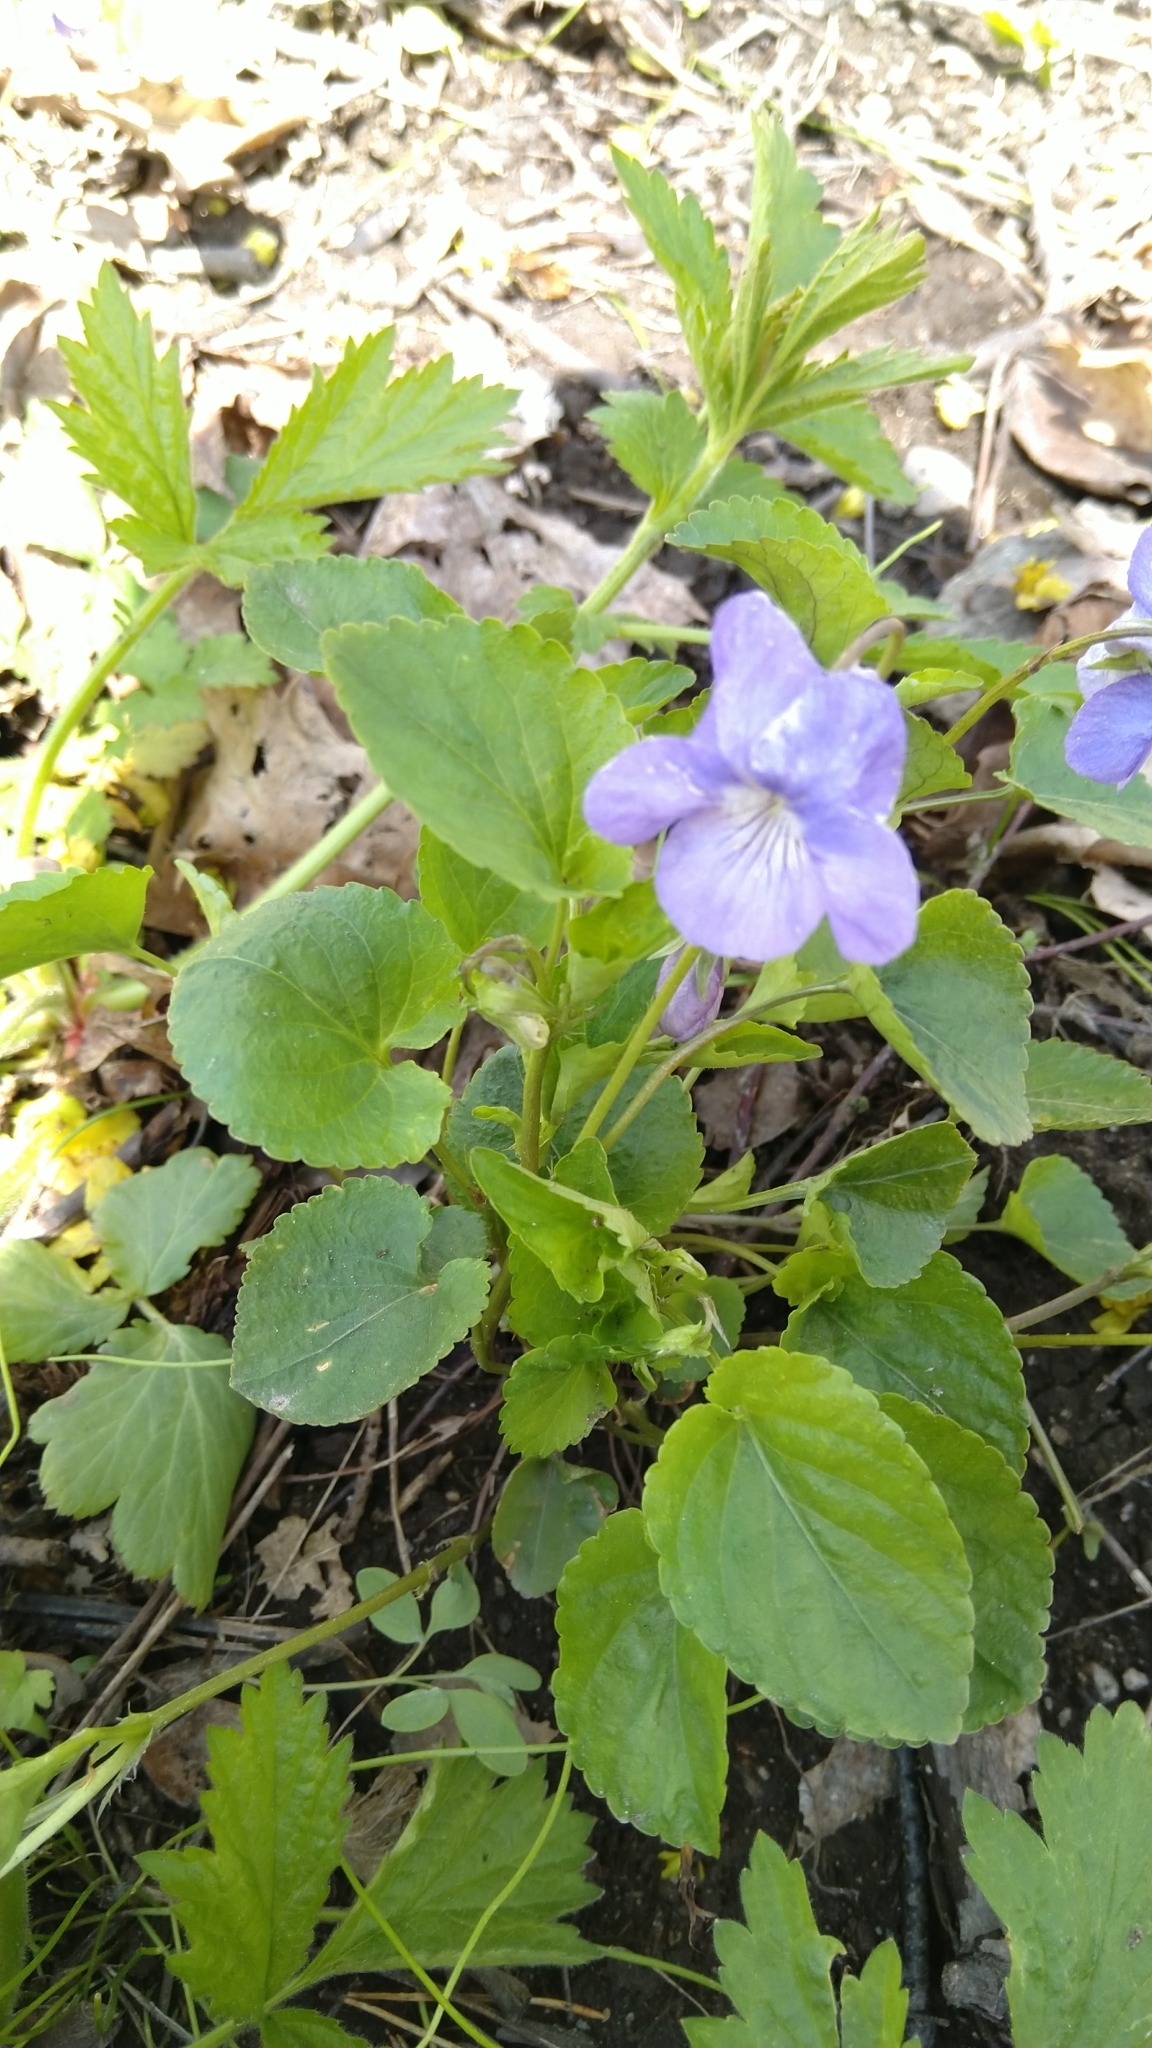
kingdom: Plantae
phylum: Tracheophyta
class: Magnoliopsida
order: Malpighiales
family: Violaceae
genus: Viola
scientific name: Viola riviniana
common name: Common dog-violet
